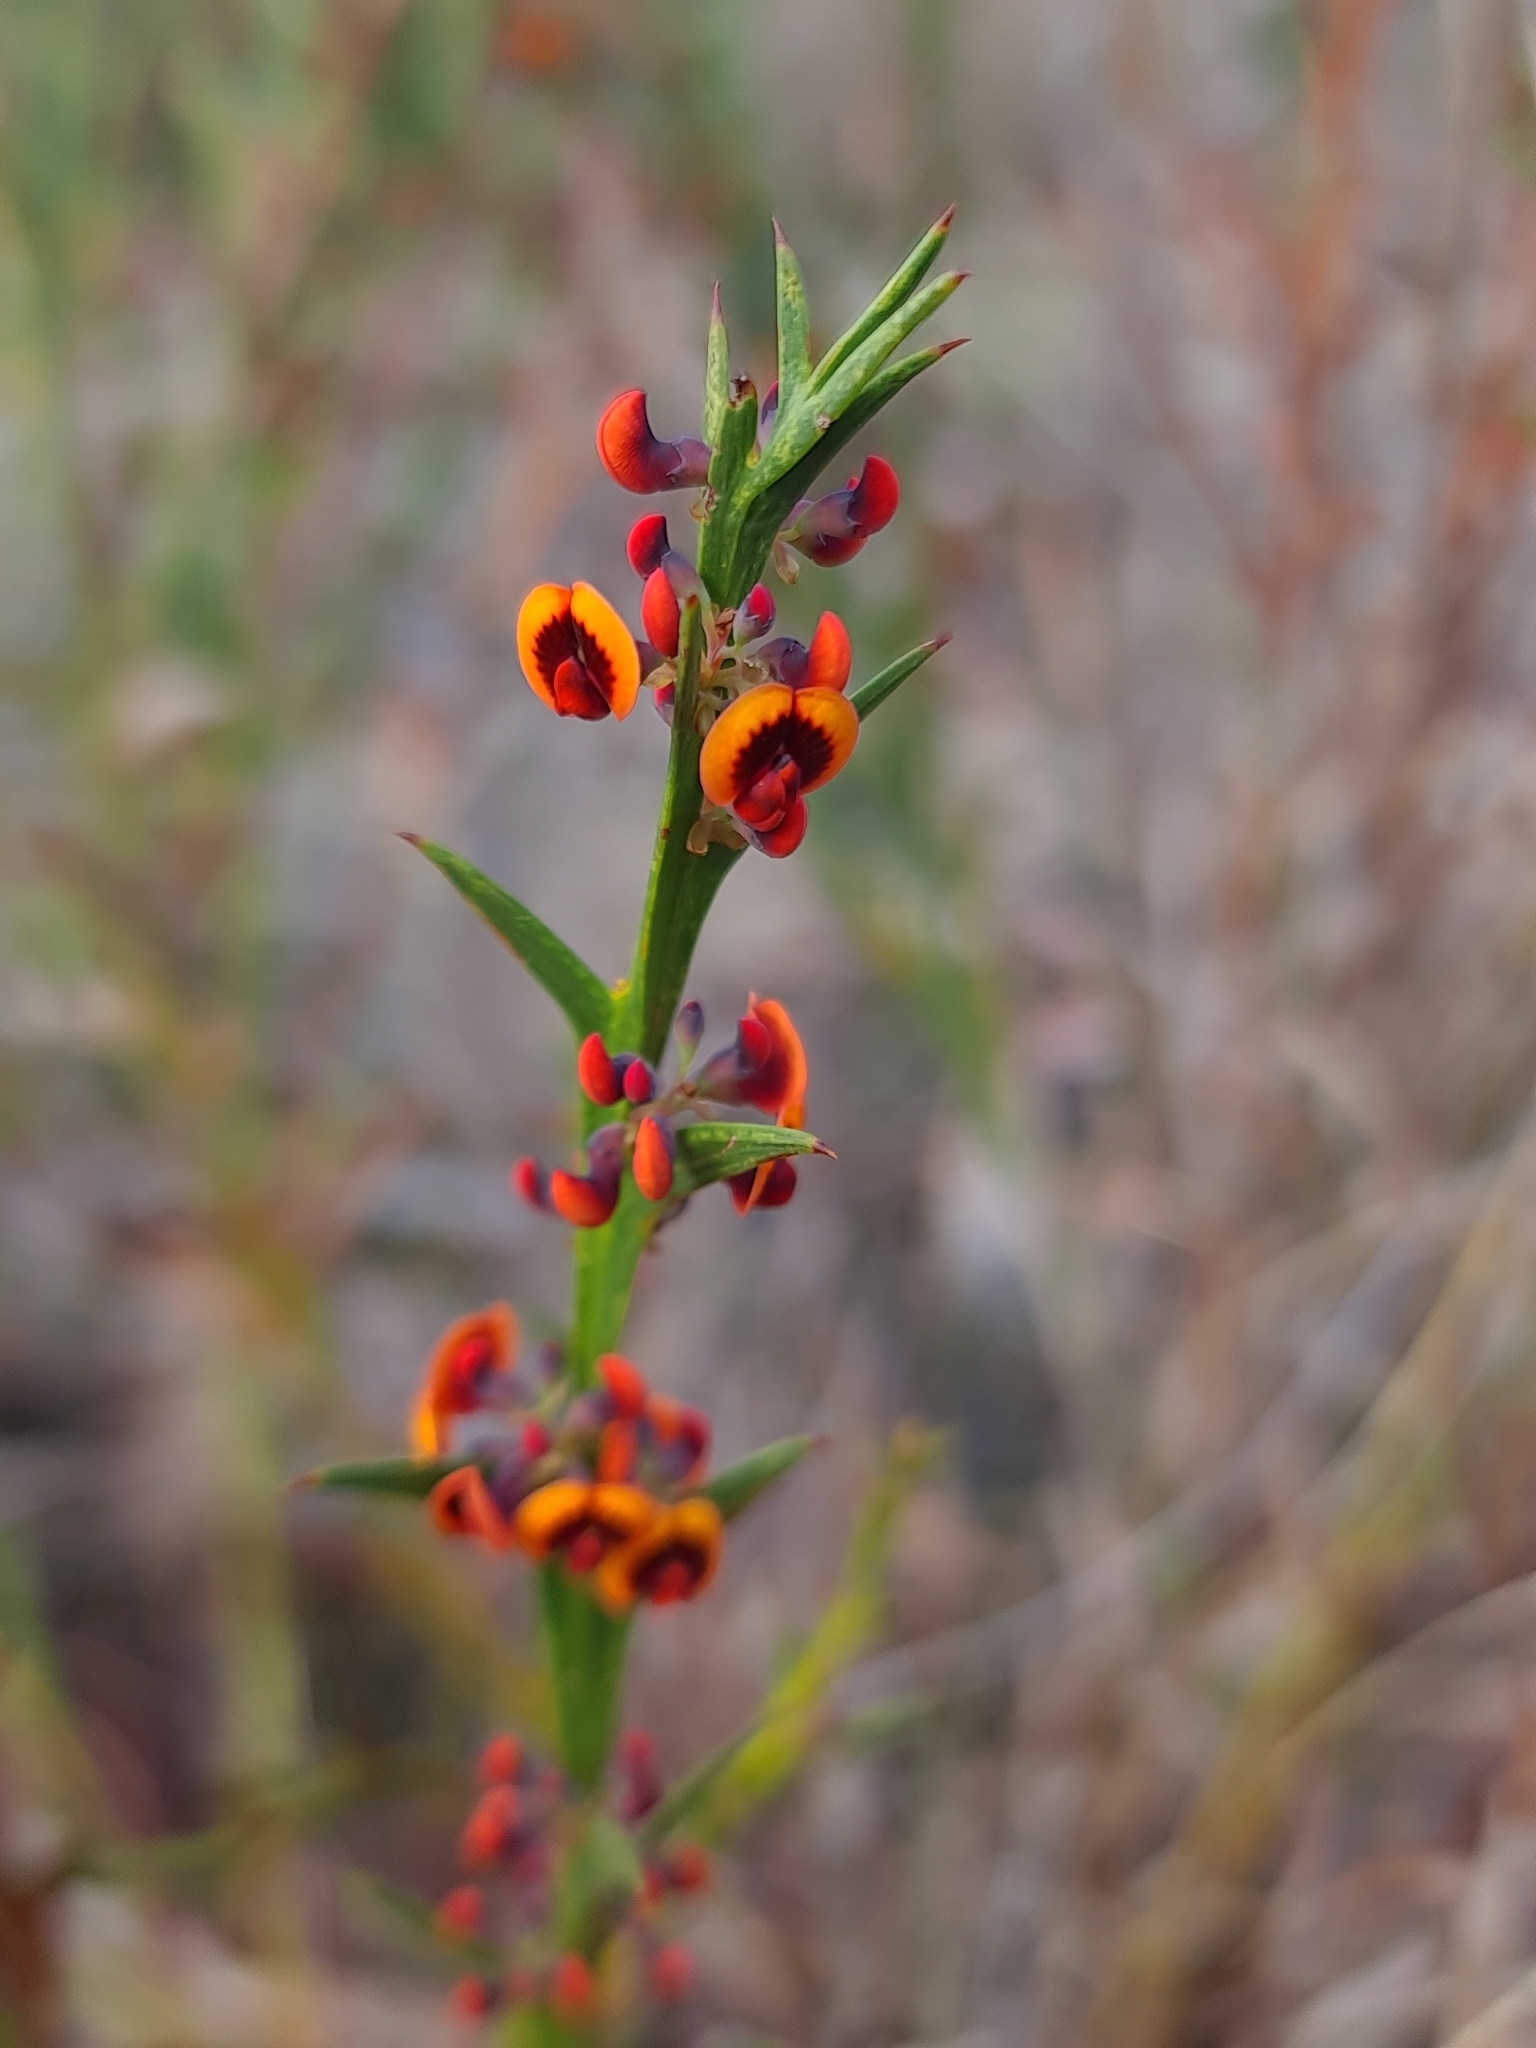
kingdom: Plantae
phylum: Tracheophyta
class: Magnoliopsida
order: Fabales
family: Fabaceae
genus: Daviesia
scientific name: Daviesia decurrens
